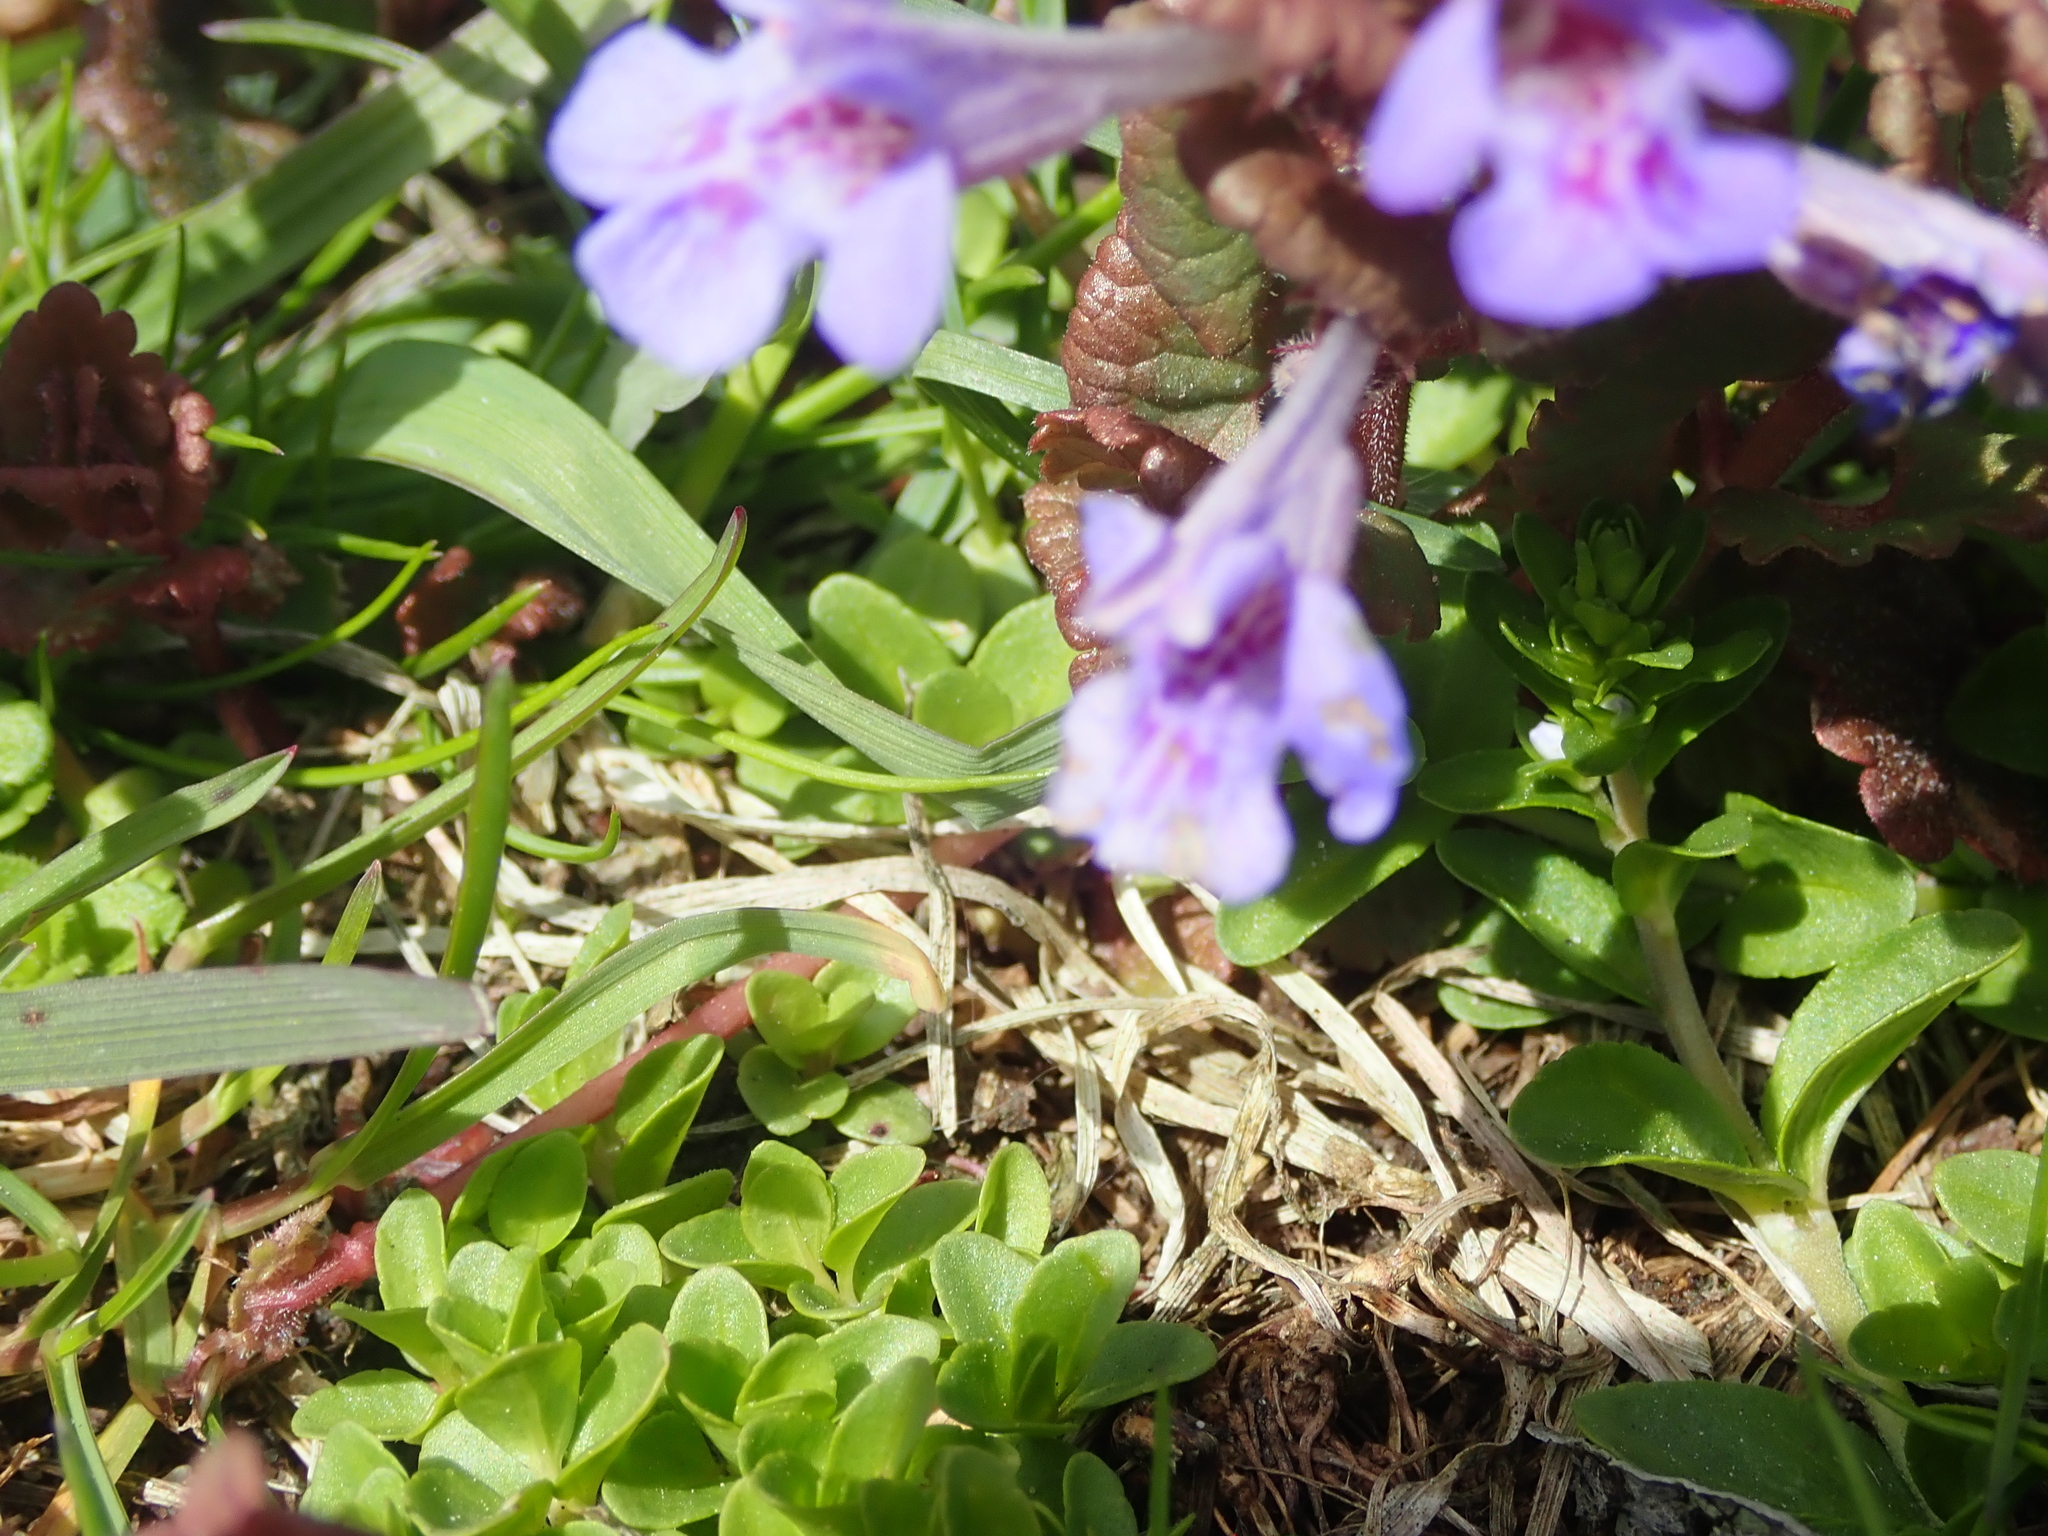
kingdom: Plantae
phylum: Tracheophyta
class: Magnoliopsida
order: Lamiales
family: Lamiaceae
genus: Glechoma
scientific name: Glechoma hederacea
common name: Ground ivy
